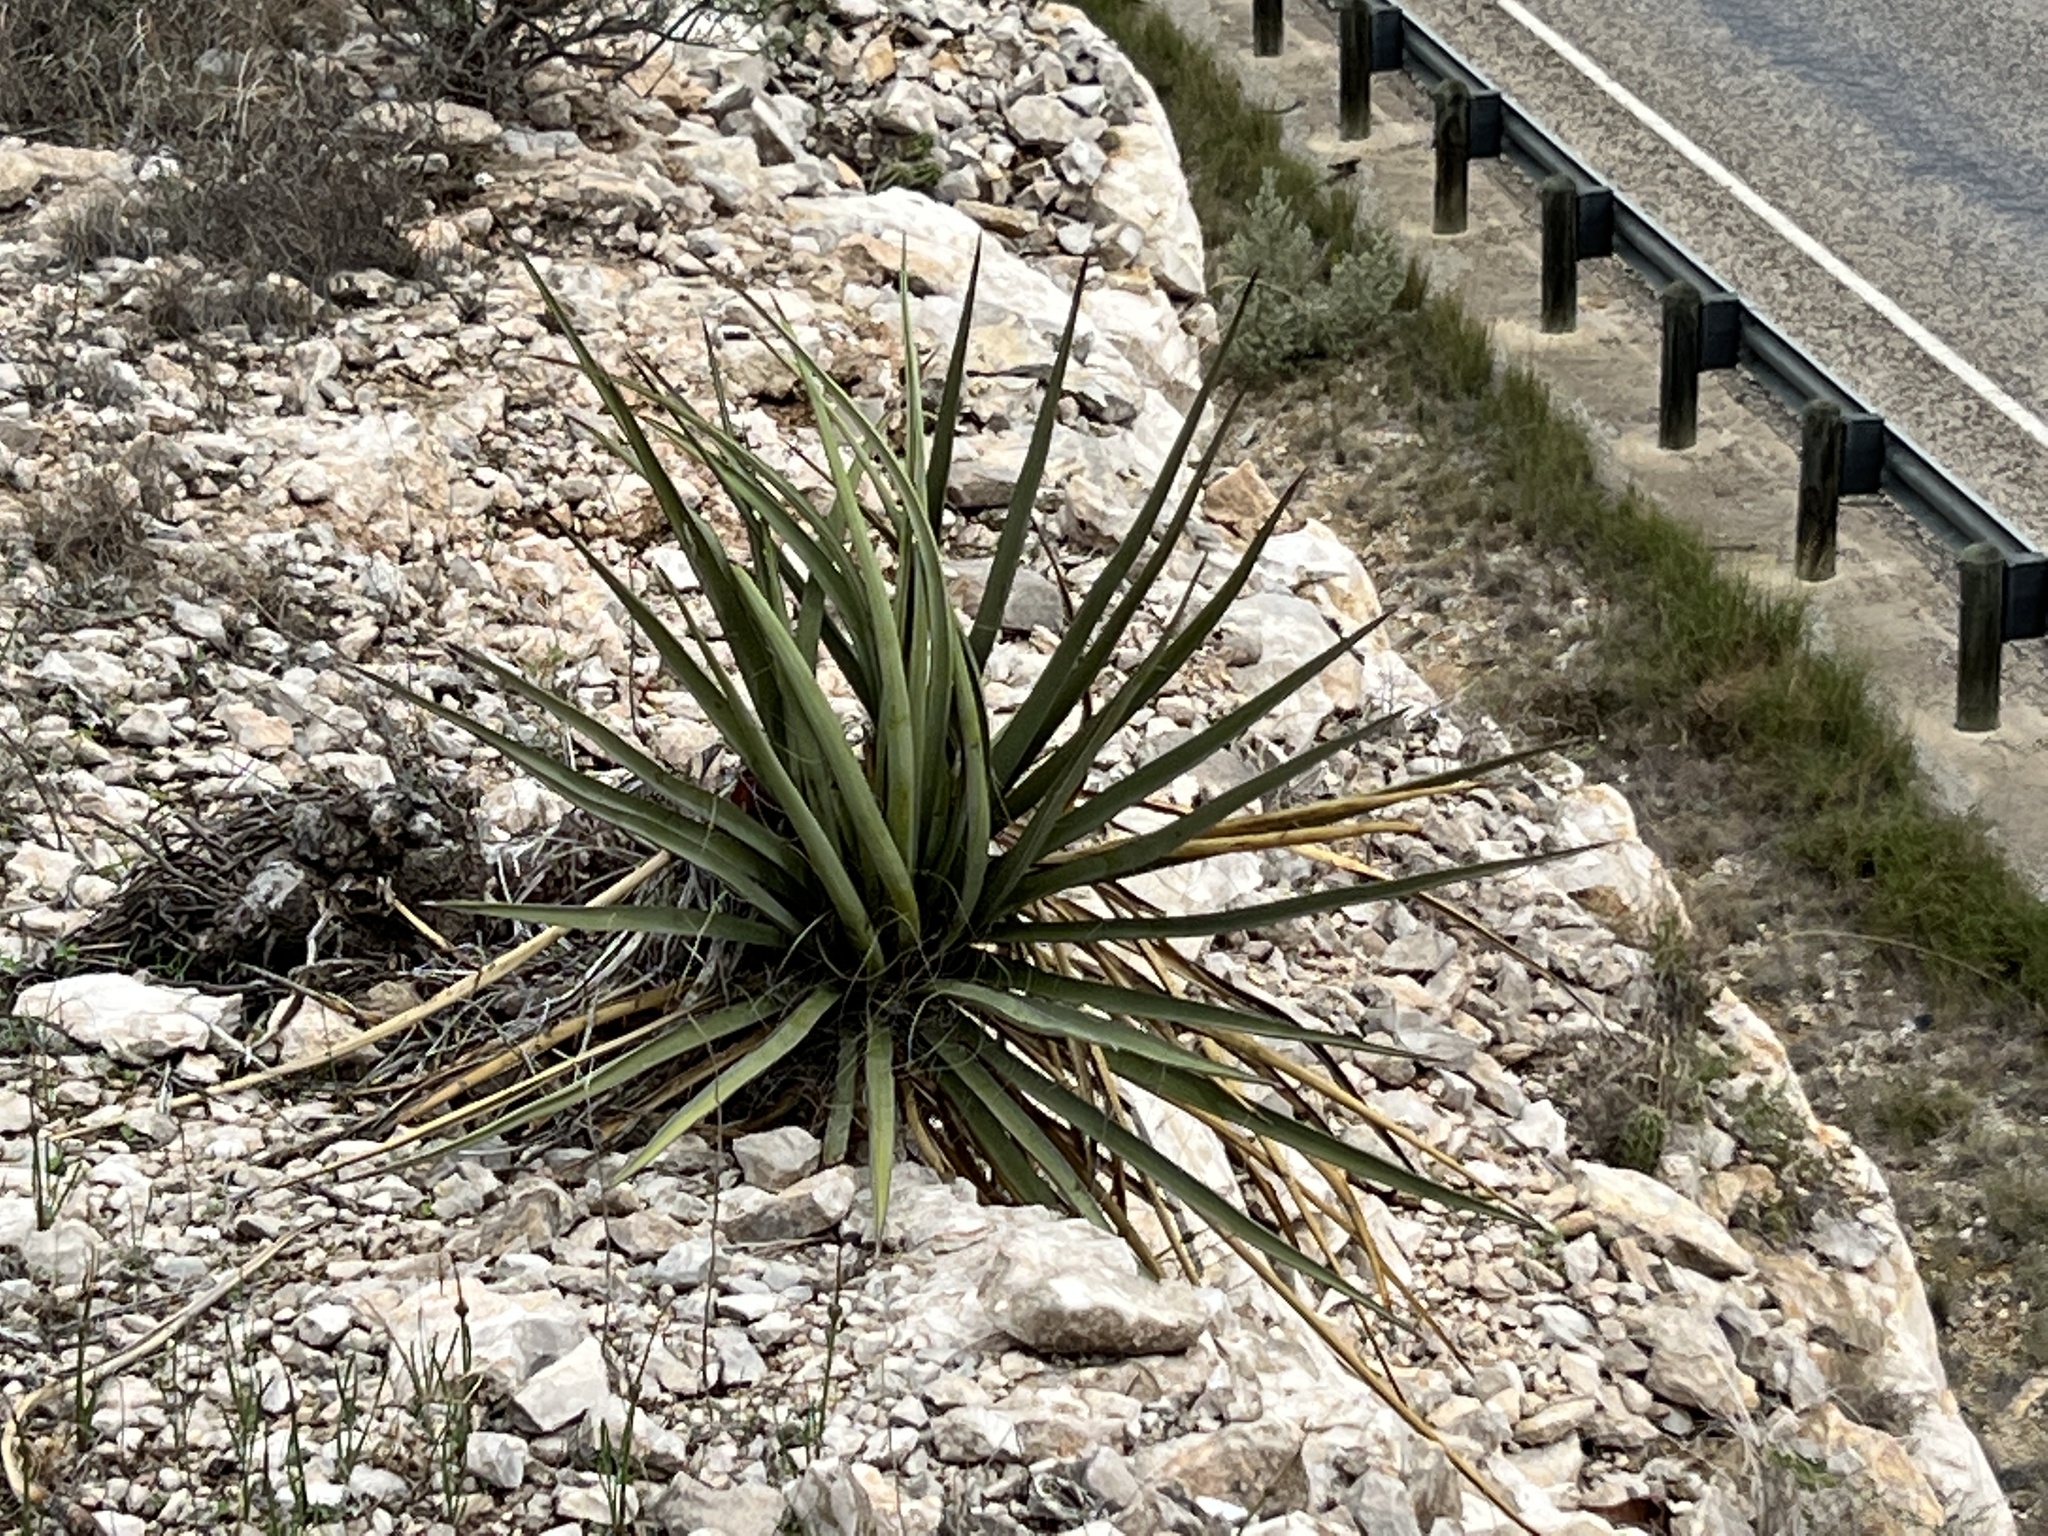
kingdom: Plantae
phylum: Tracheophyta
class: Liliopsida
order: Asparagales
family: Asparagaceae
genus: Yucca
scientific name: Yucca treculiana
